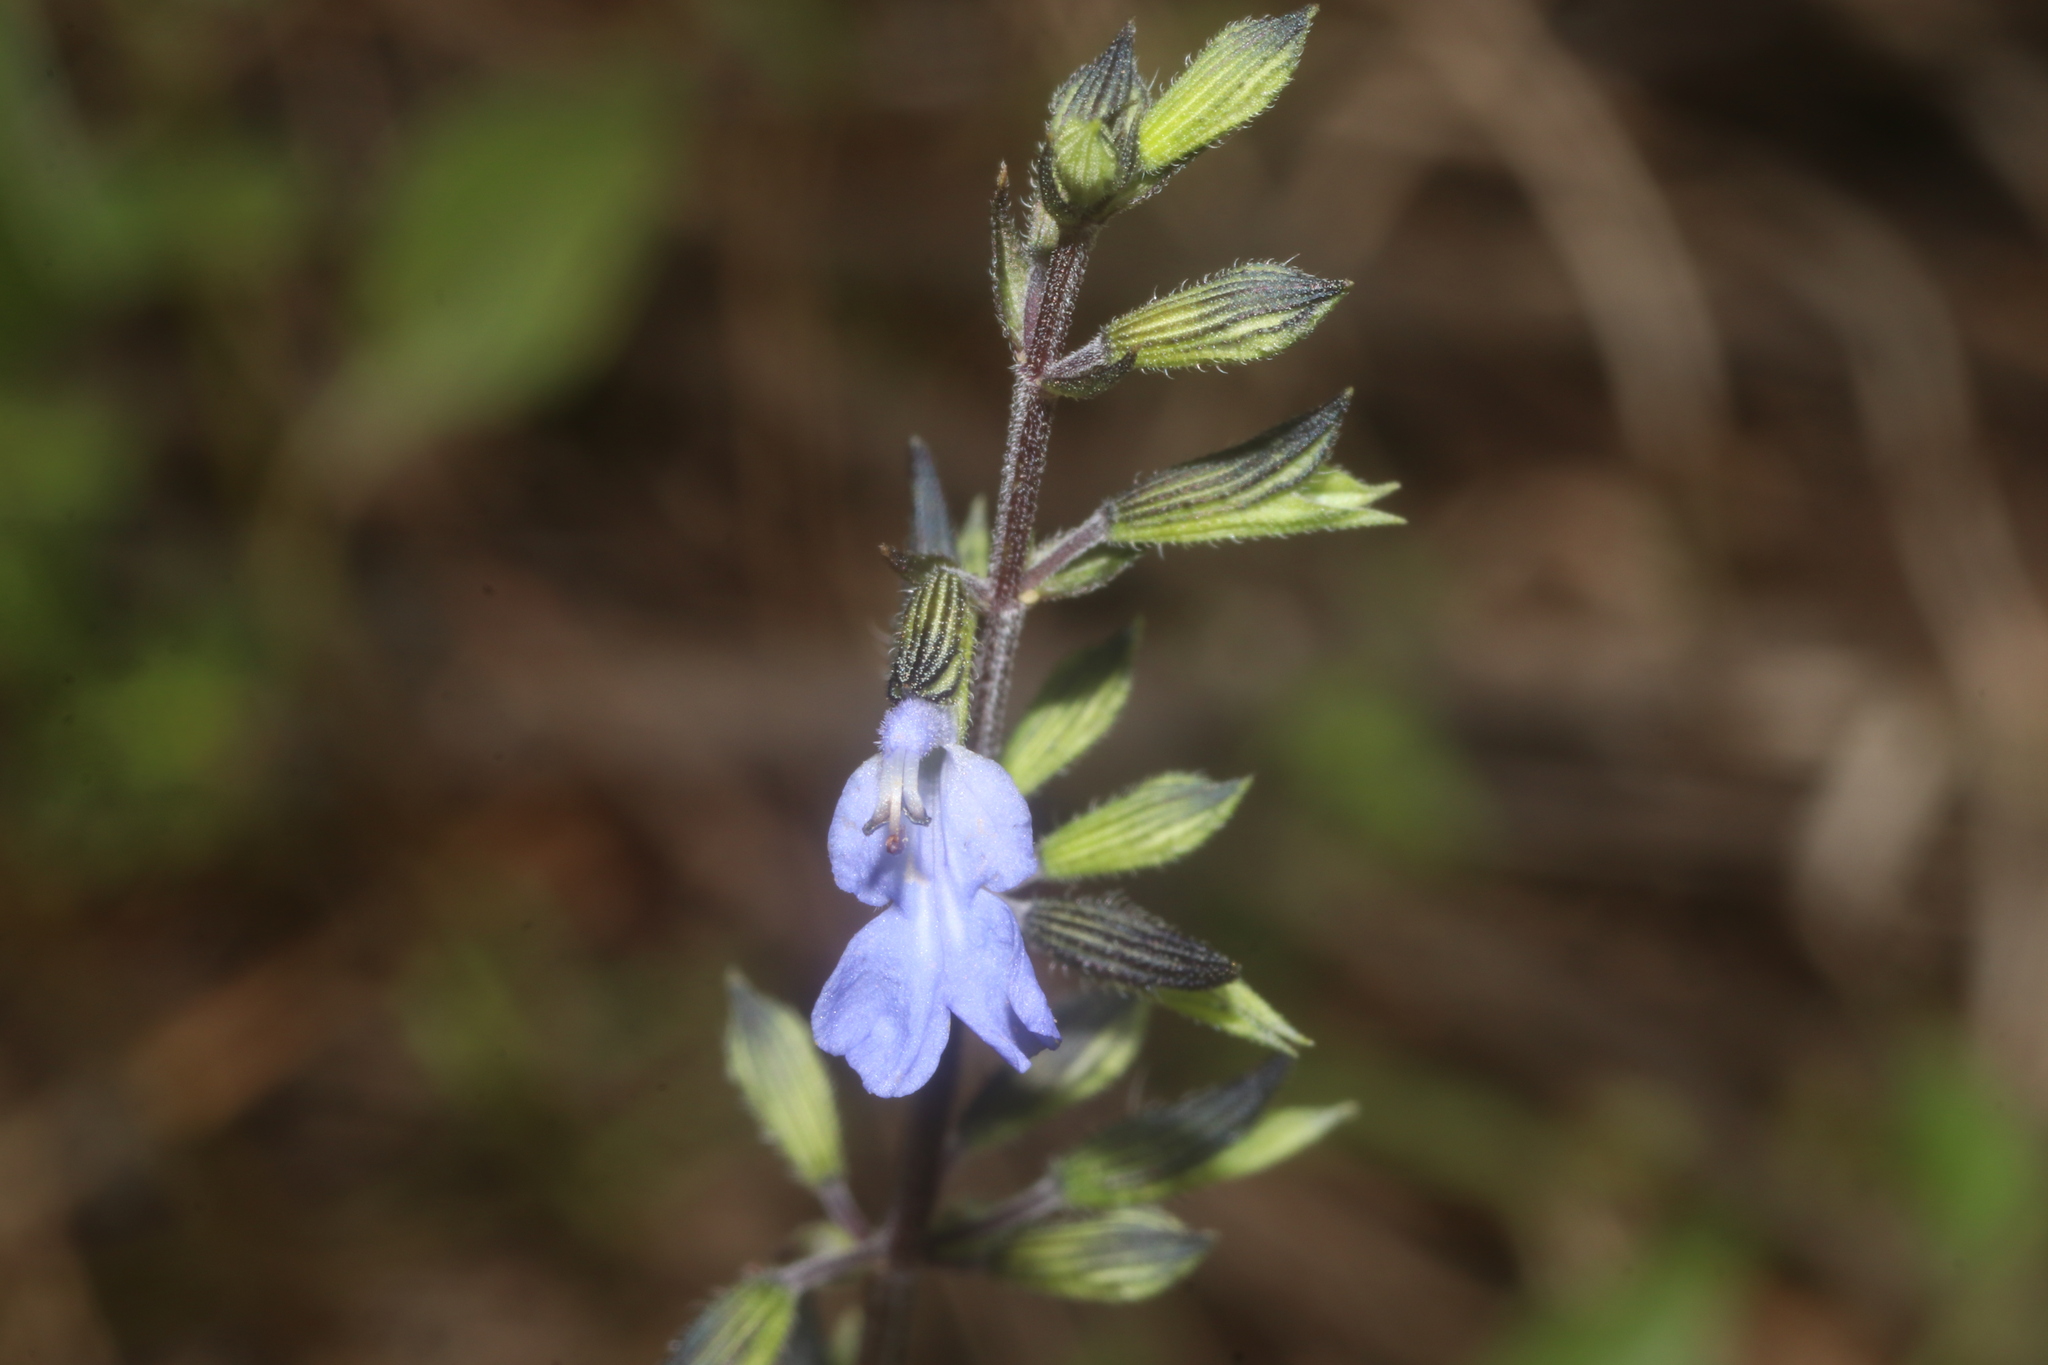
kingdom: Plantae
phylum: Tracheophyta
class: Magnoliopsida
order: Lamiales
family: Lamiaceae
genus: Salvia
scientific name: Salvia serotina
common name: Catnip
